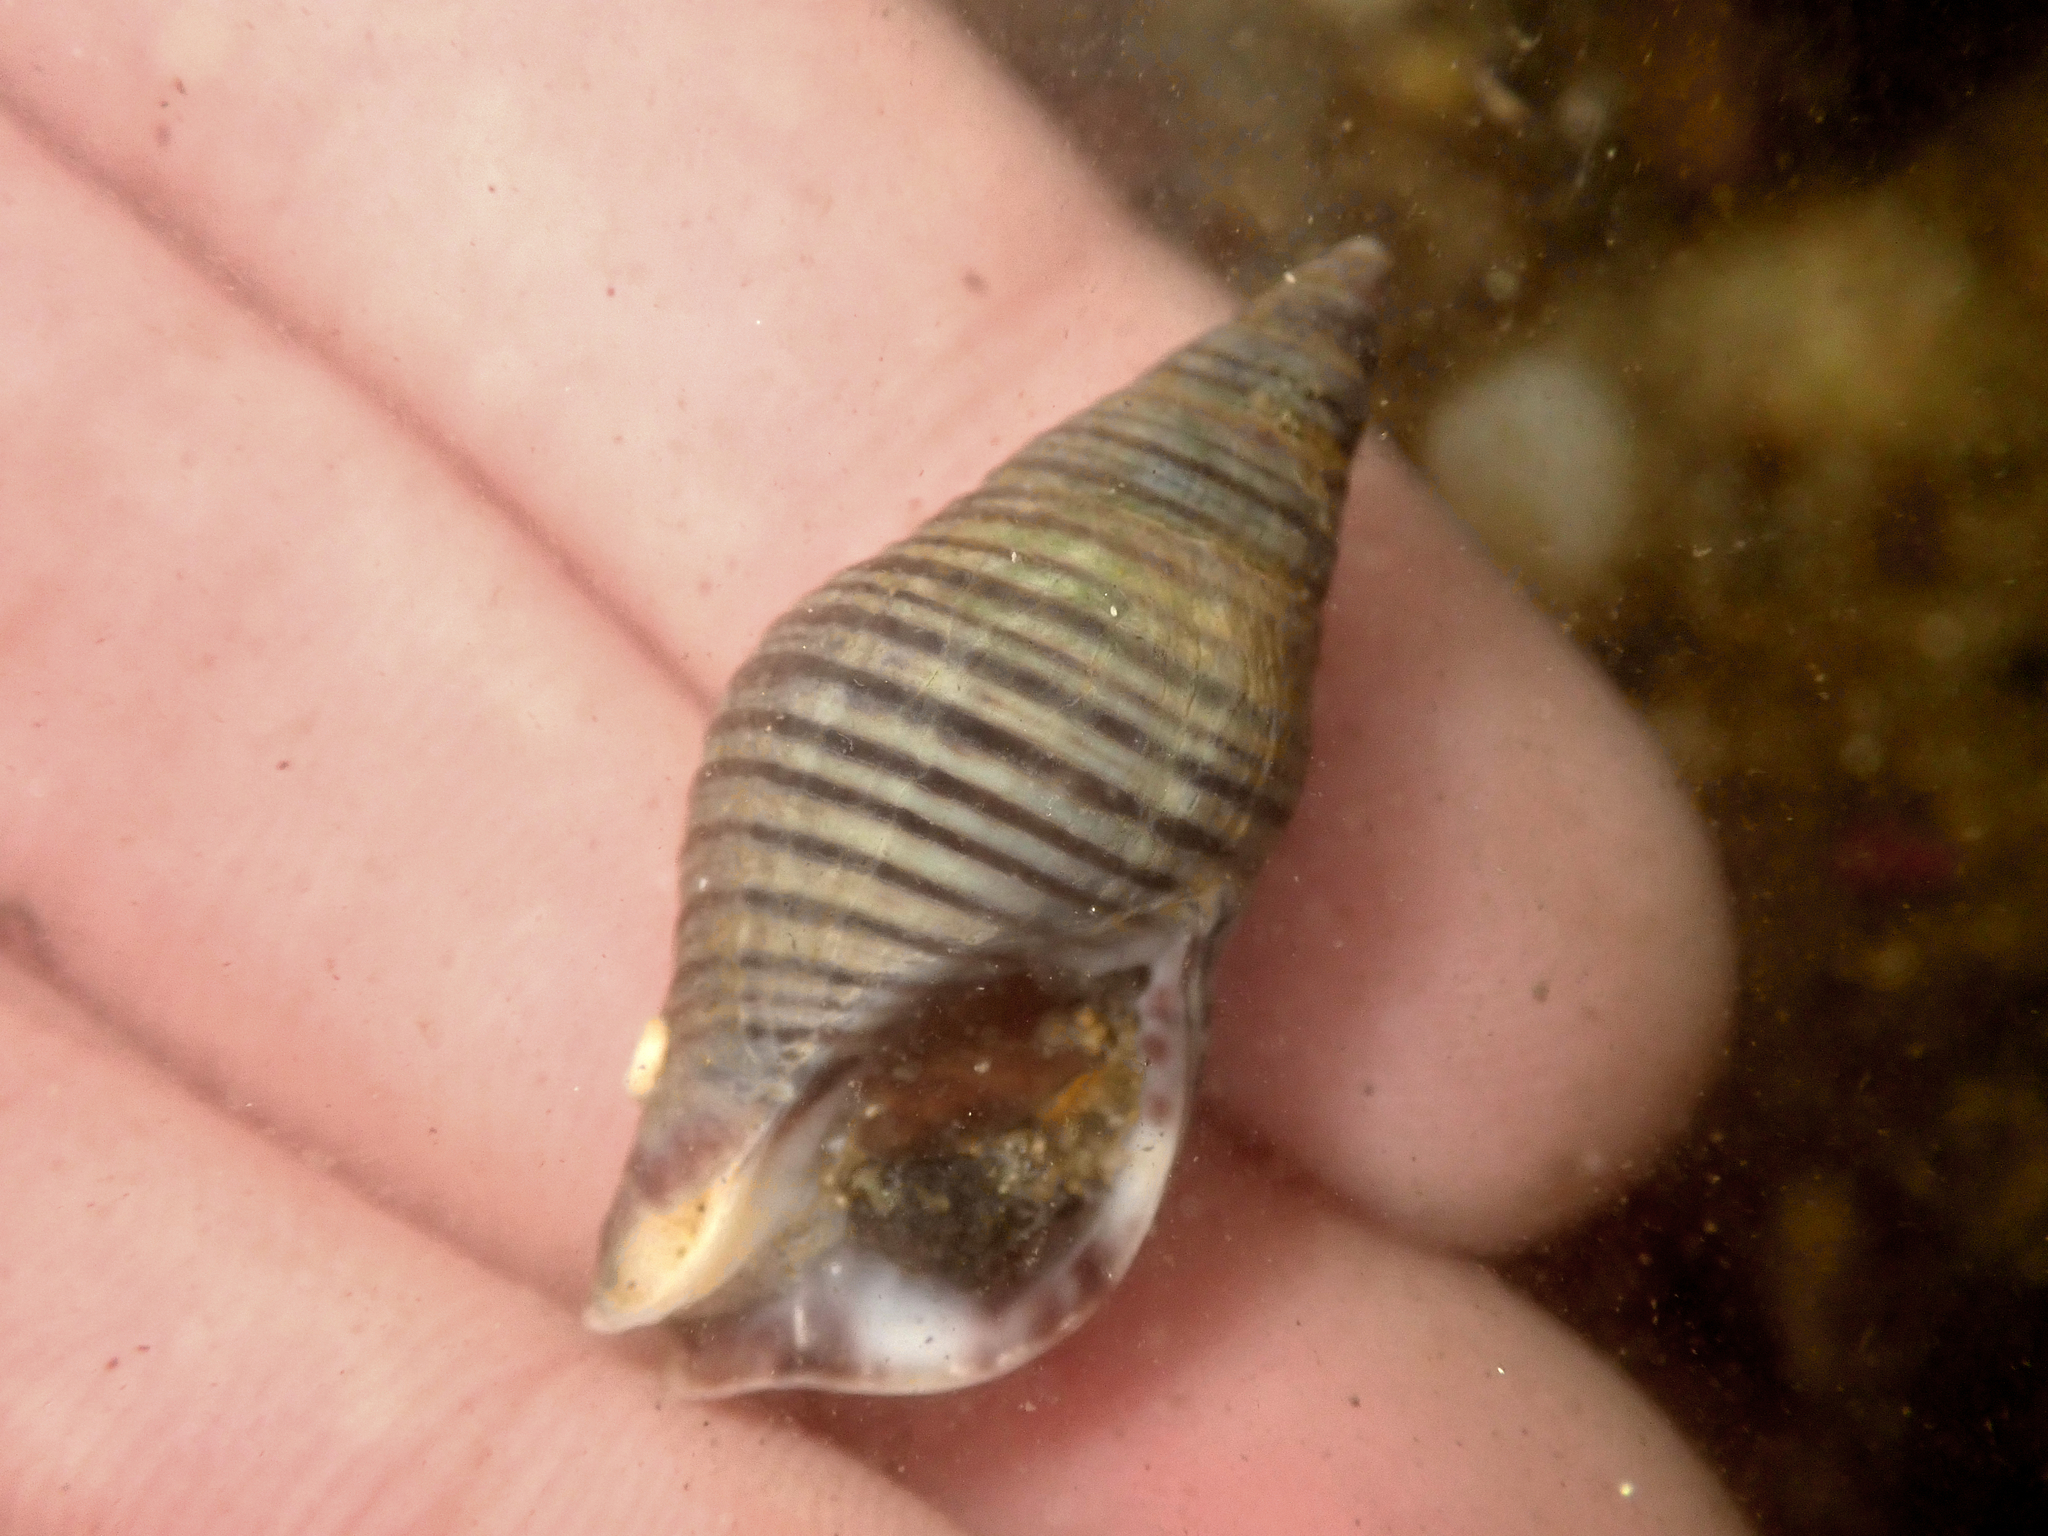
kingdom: Animalia
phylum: Mollusca
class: Gastropoda
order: Neogastropoda
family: Tudiclidae
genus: Buccinulum
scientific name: Buccinulum littorinoides
